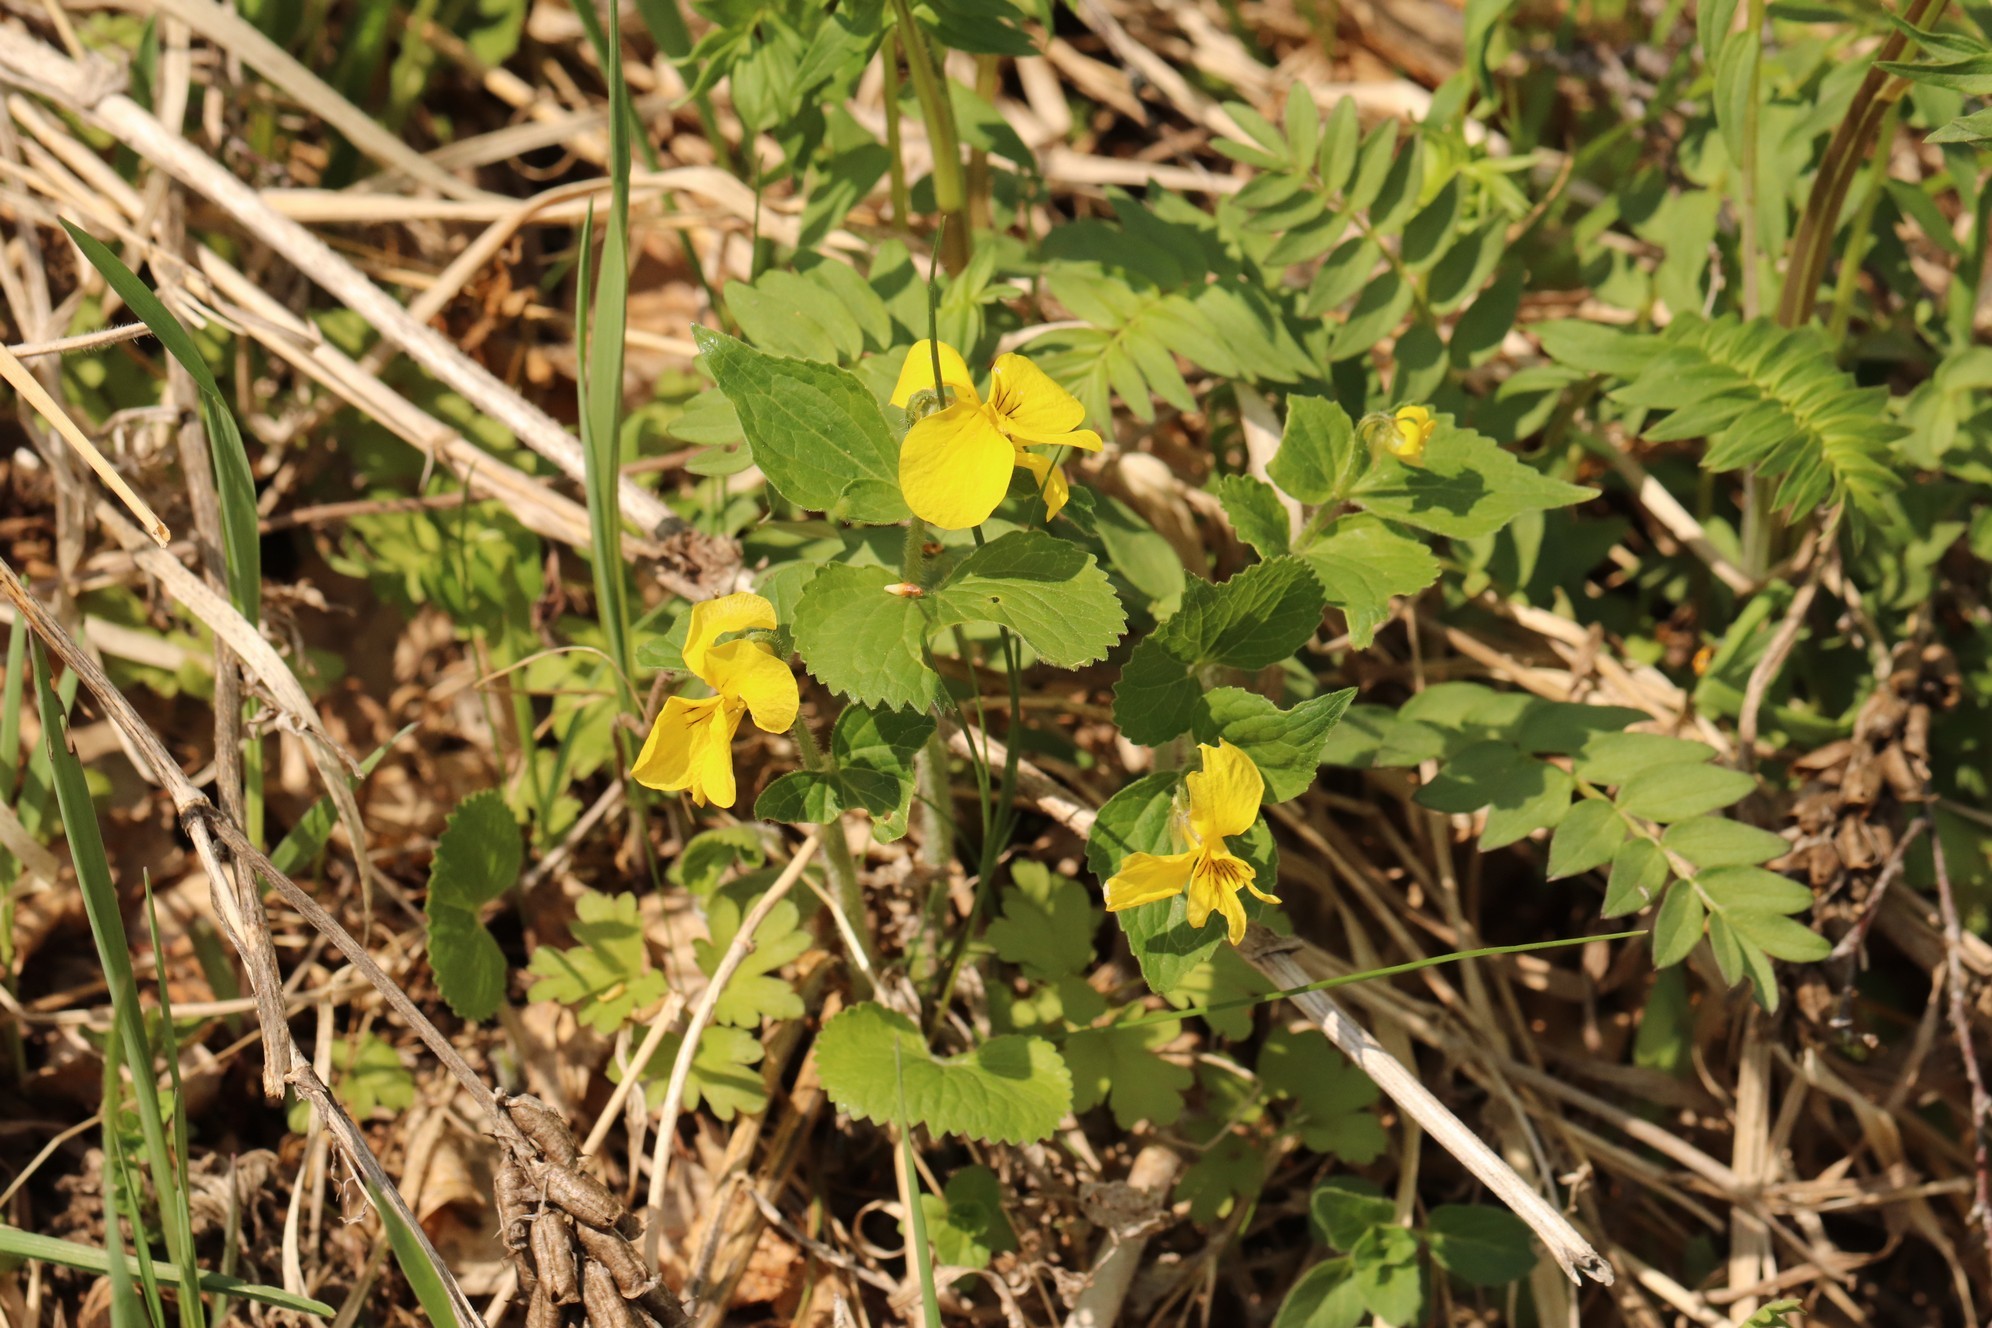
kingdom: Plantae
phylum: Tracheophyta
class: Magnoliopsida
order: Malpighiales
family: Violaceae
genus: Viola
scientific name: Viola uniflora
